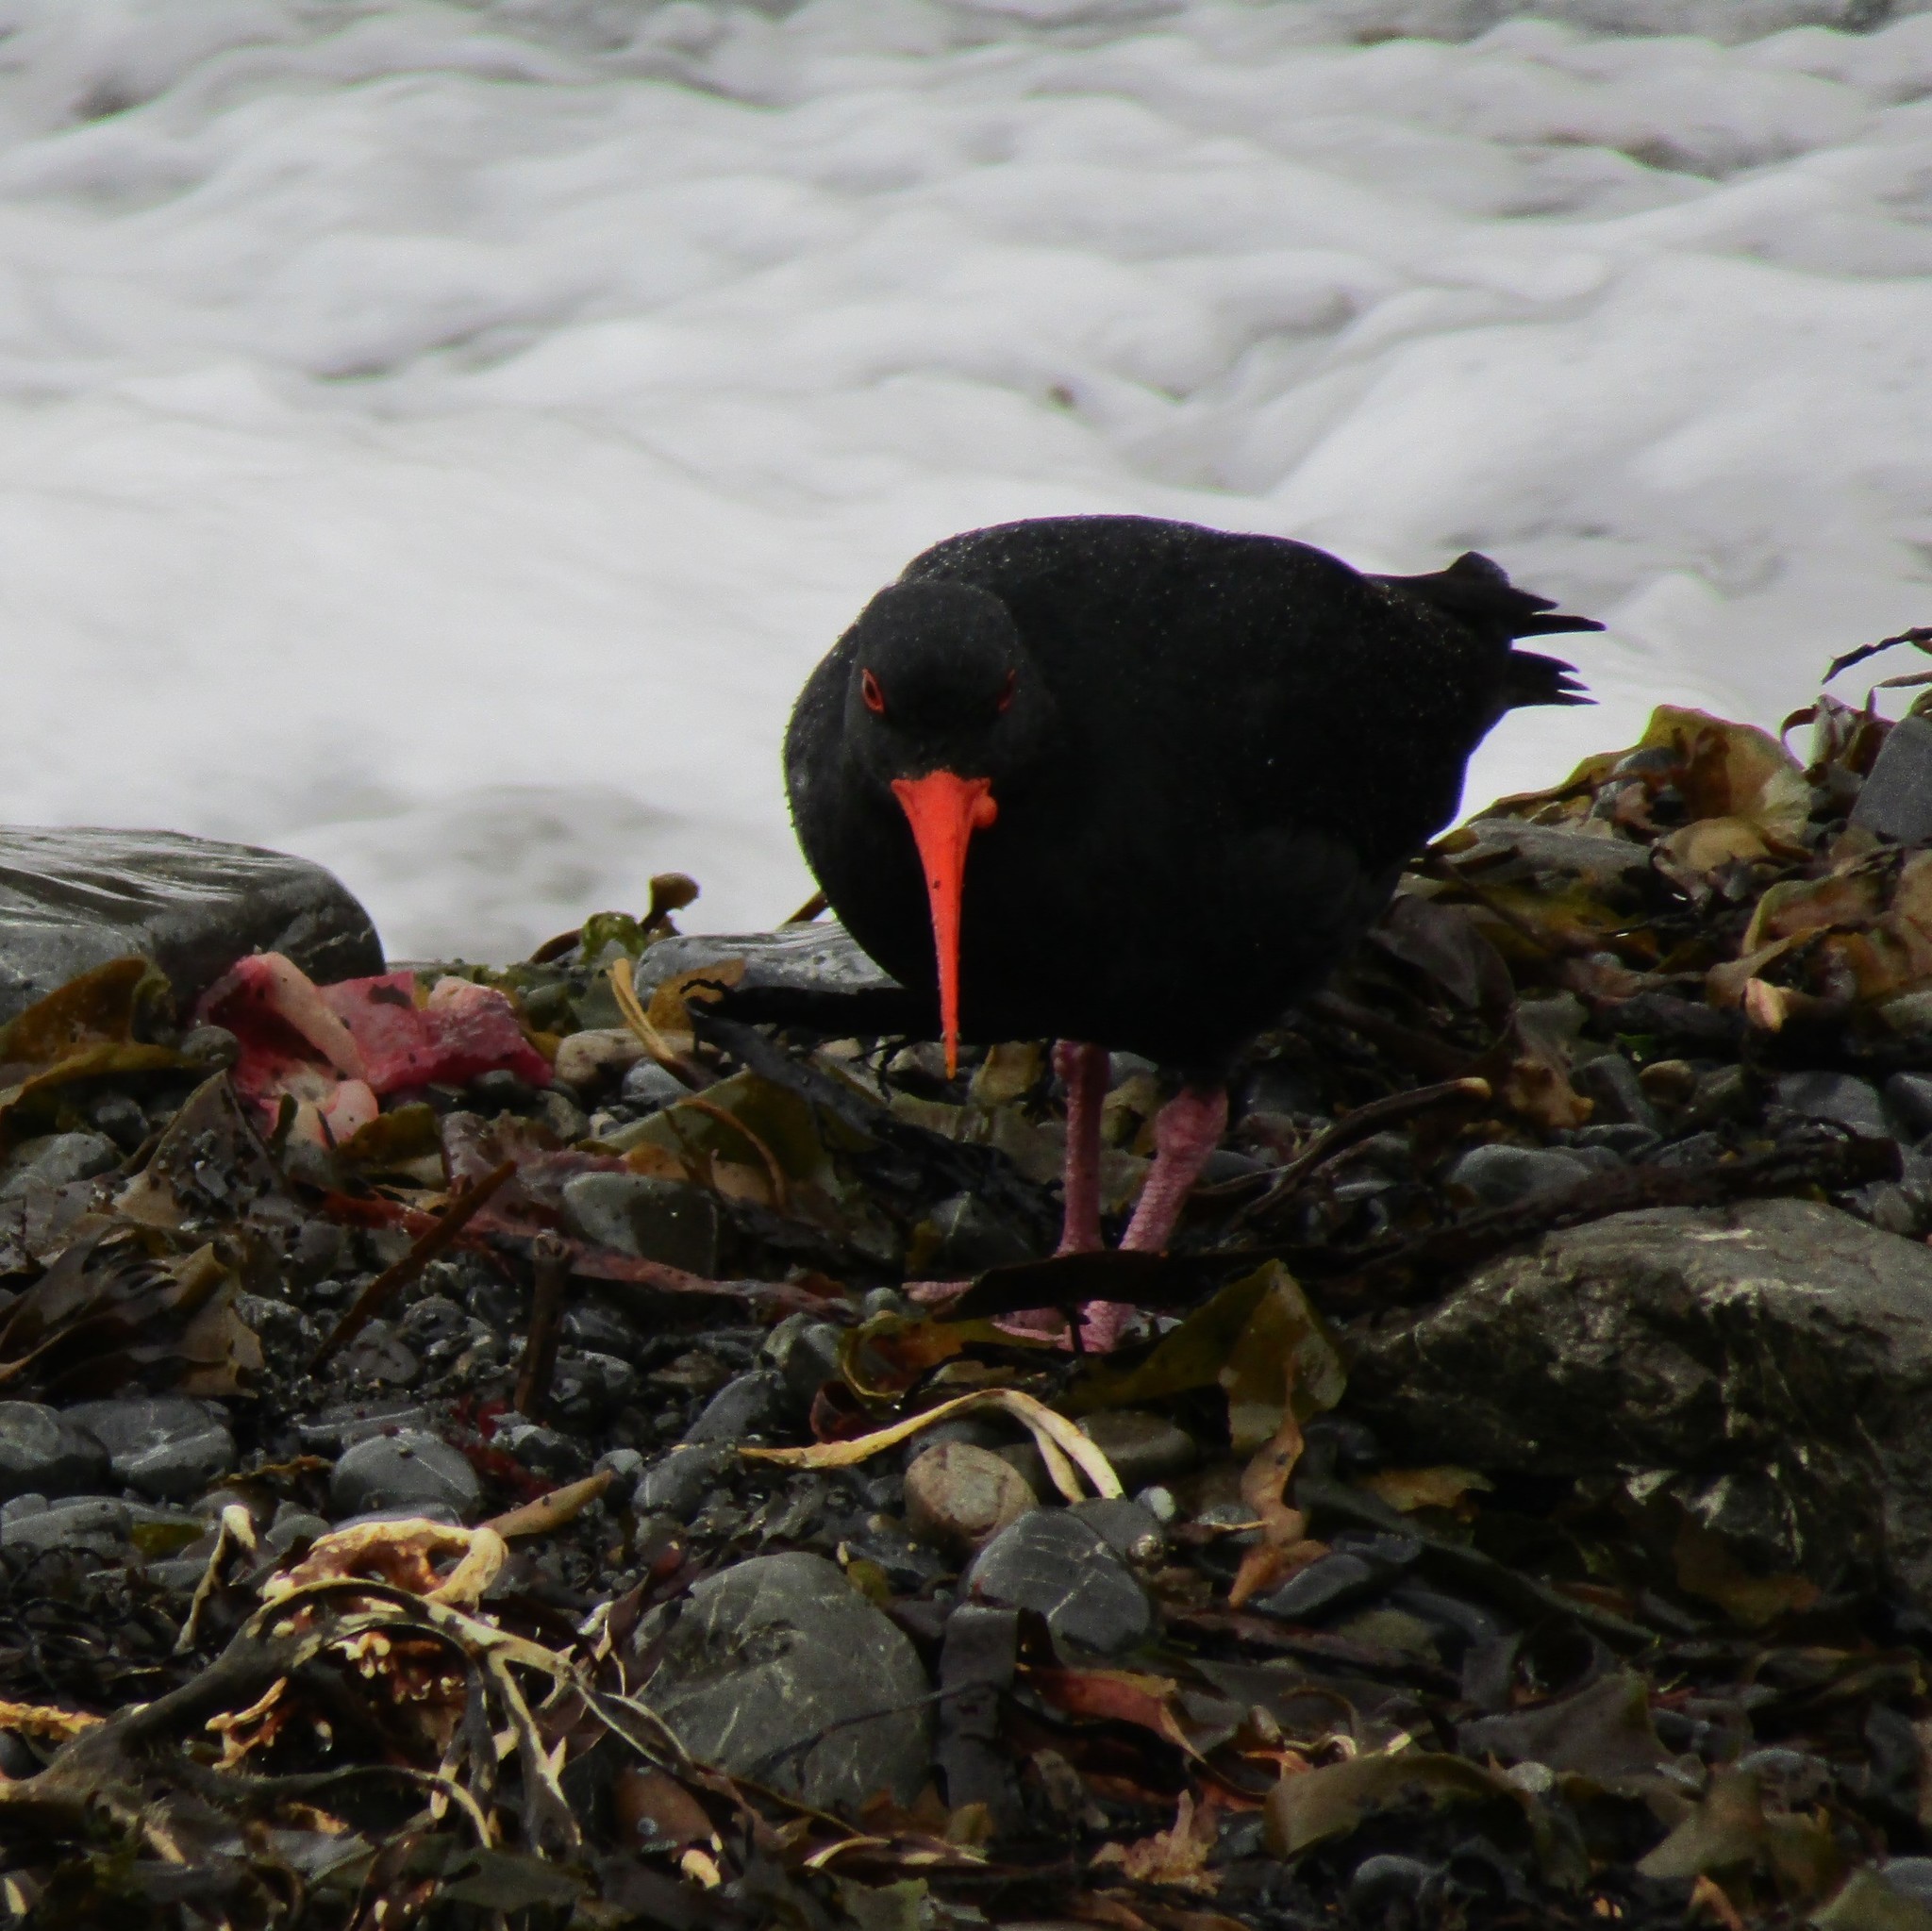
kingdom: Animalia
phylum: Chordata
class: Aves
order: Charadriiformes
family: Haematopodidae
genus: Haematopus
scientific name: Haematopus unicolor
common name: Variable oystercatcher
